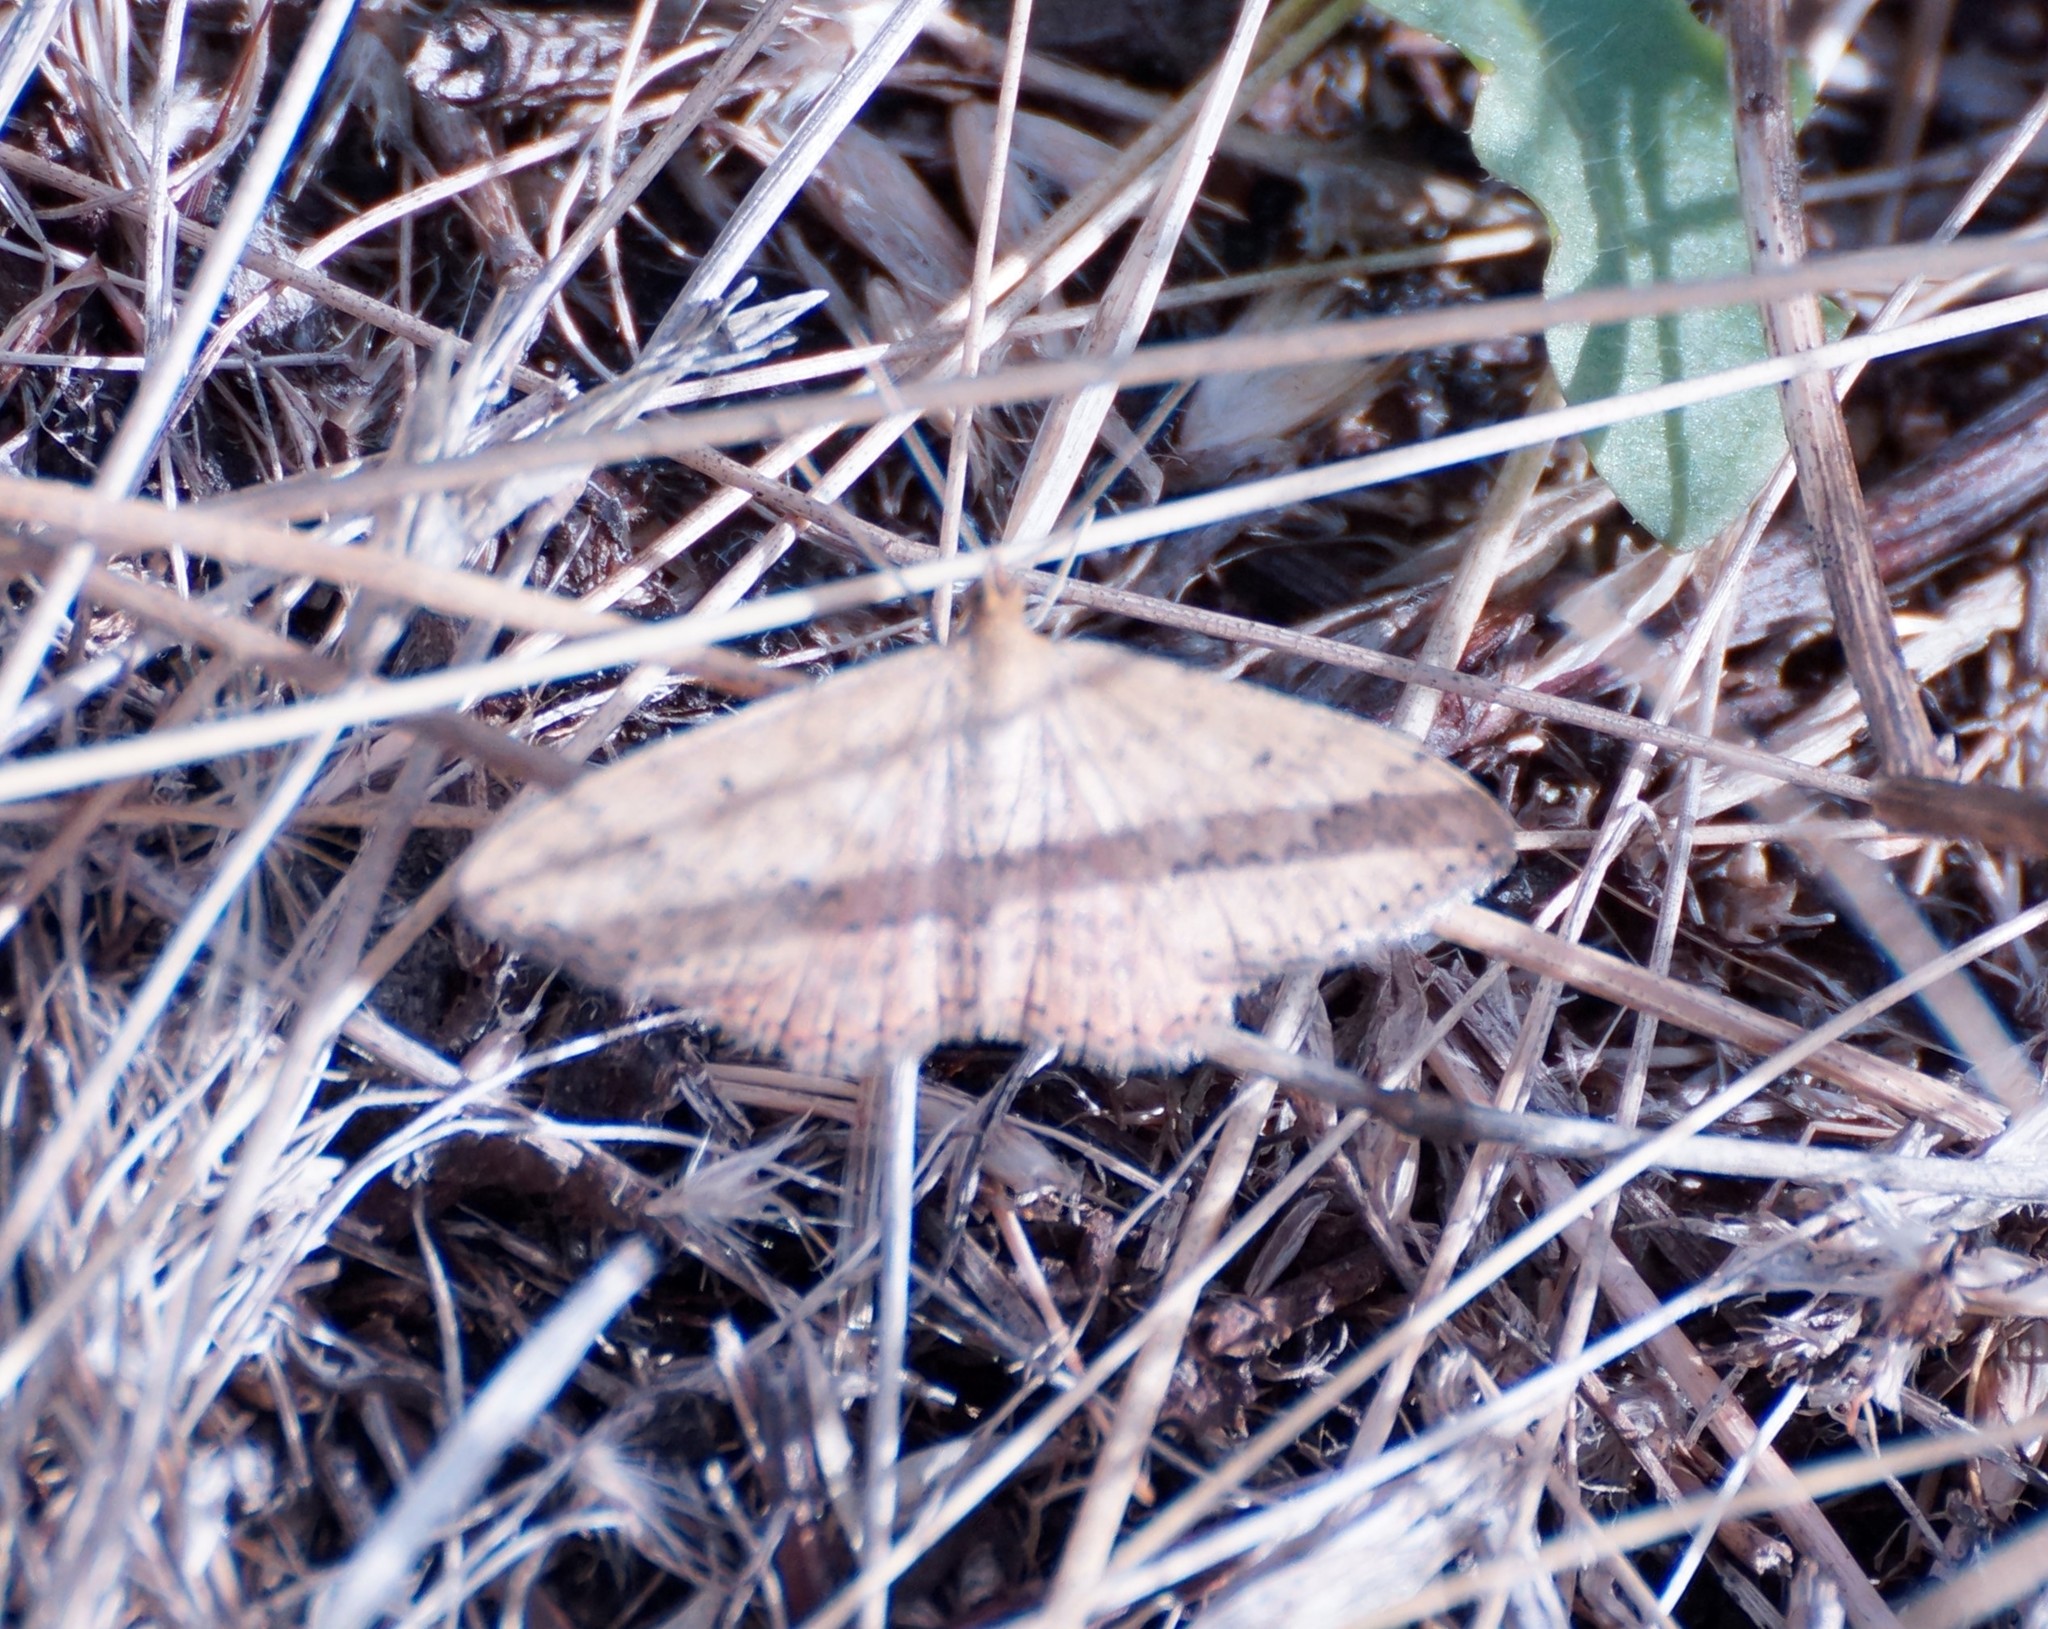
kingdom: Animalia
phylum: Arthropoda
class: Insecta
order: Lepidoptera
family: Geometridae
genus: Scopula
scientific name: Scopula rubraria
